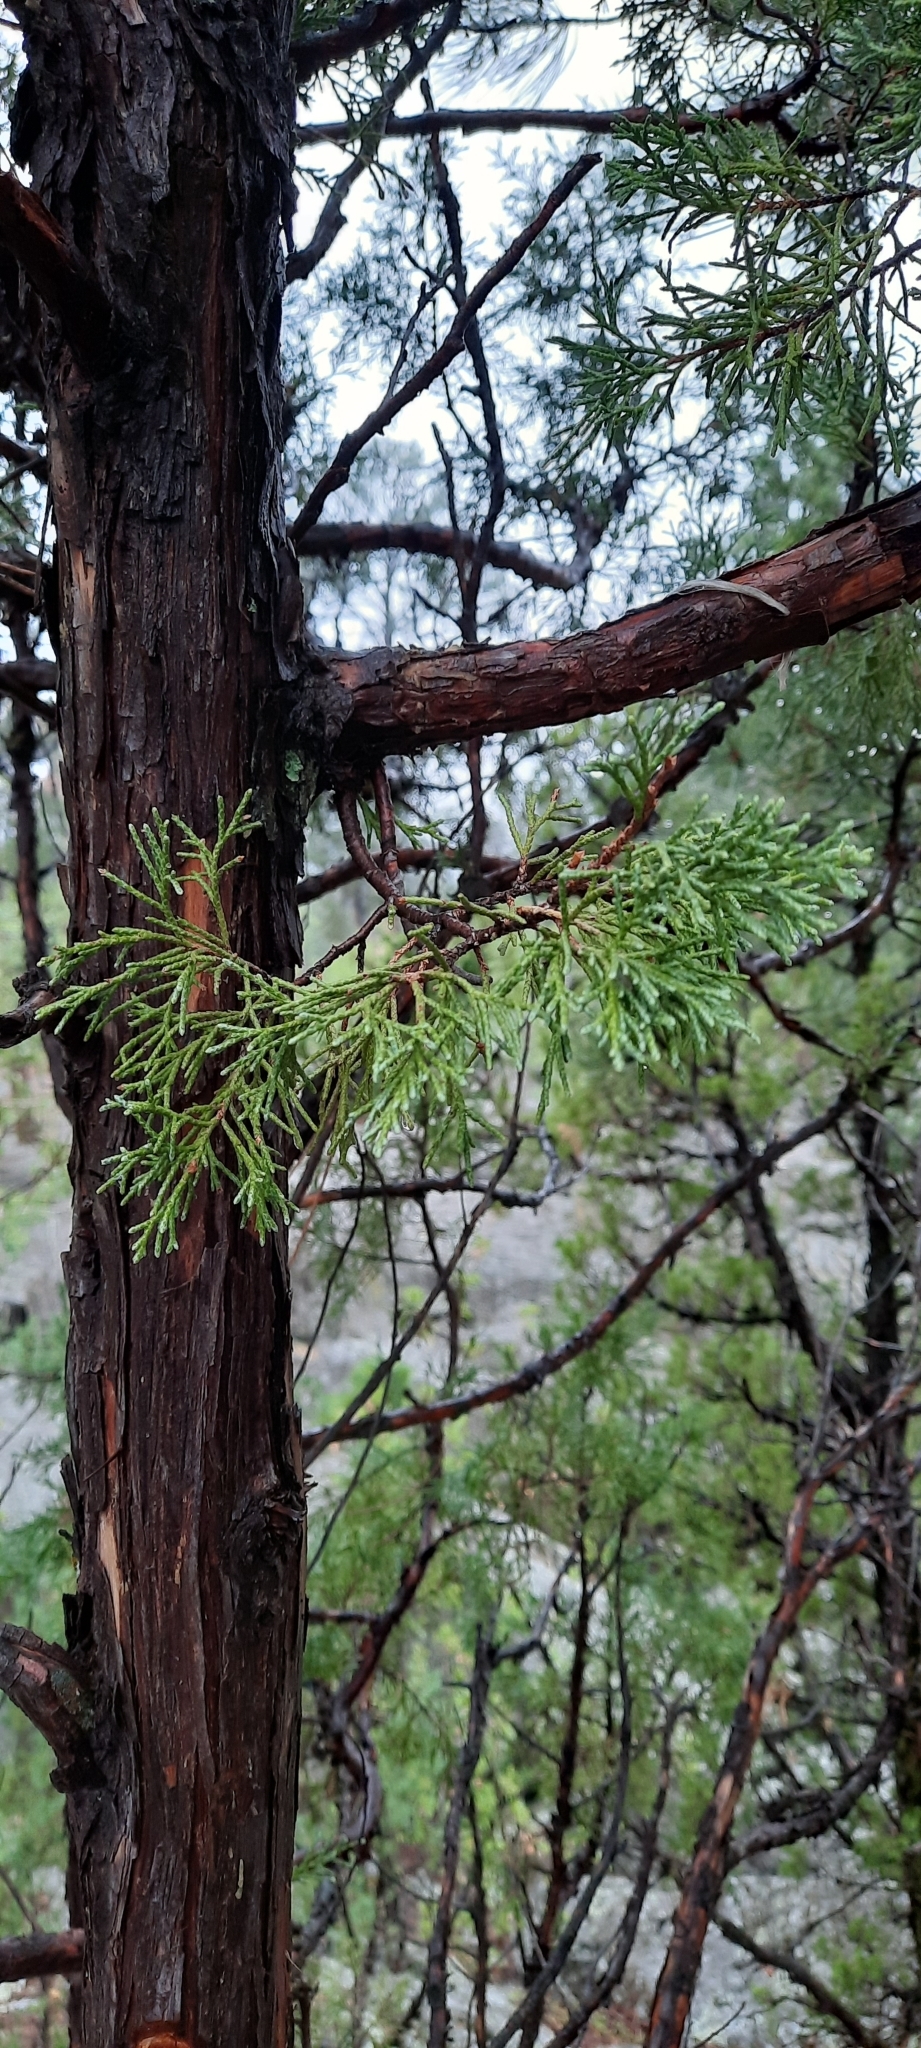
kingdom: Plantae
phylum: Tracheophyta
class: Pinopsida
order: Pinales
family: Cupressaceae
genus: Juniperus
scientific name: Juniperus scopulorum
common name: Rocky mountain juniper
